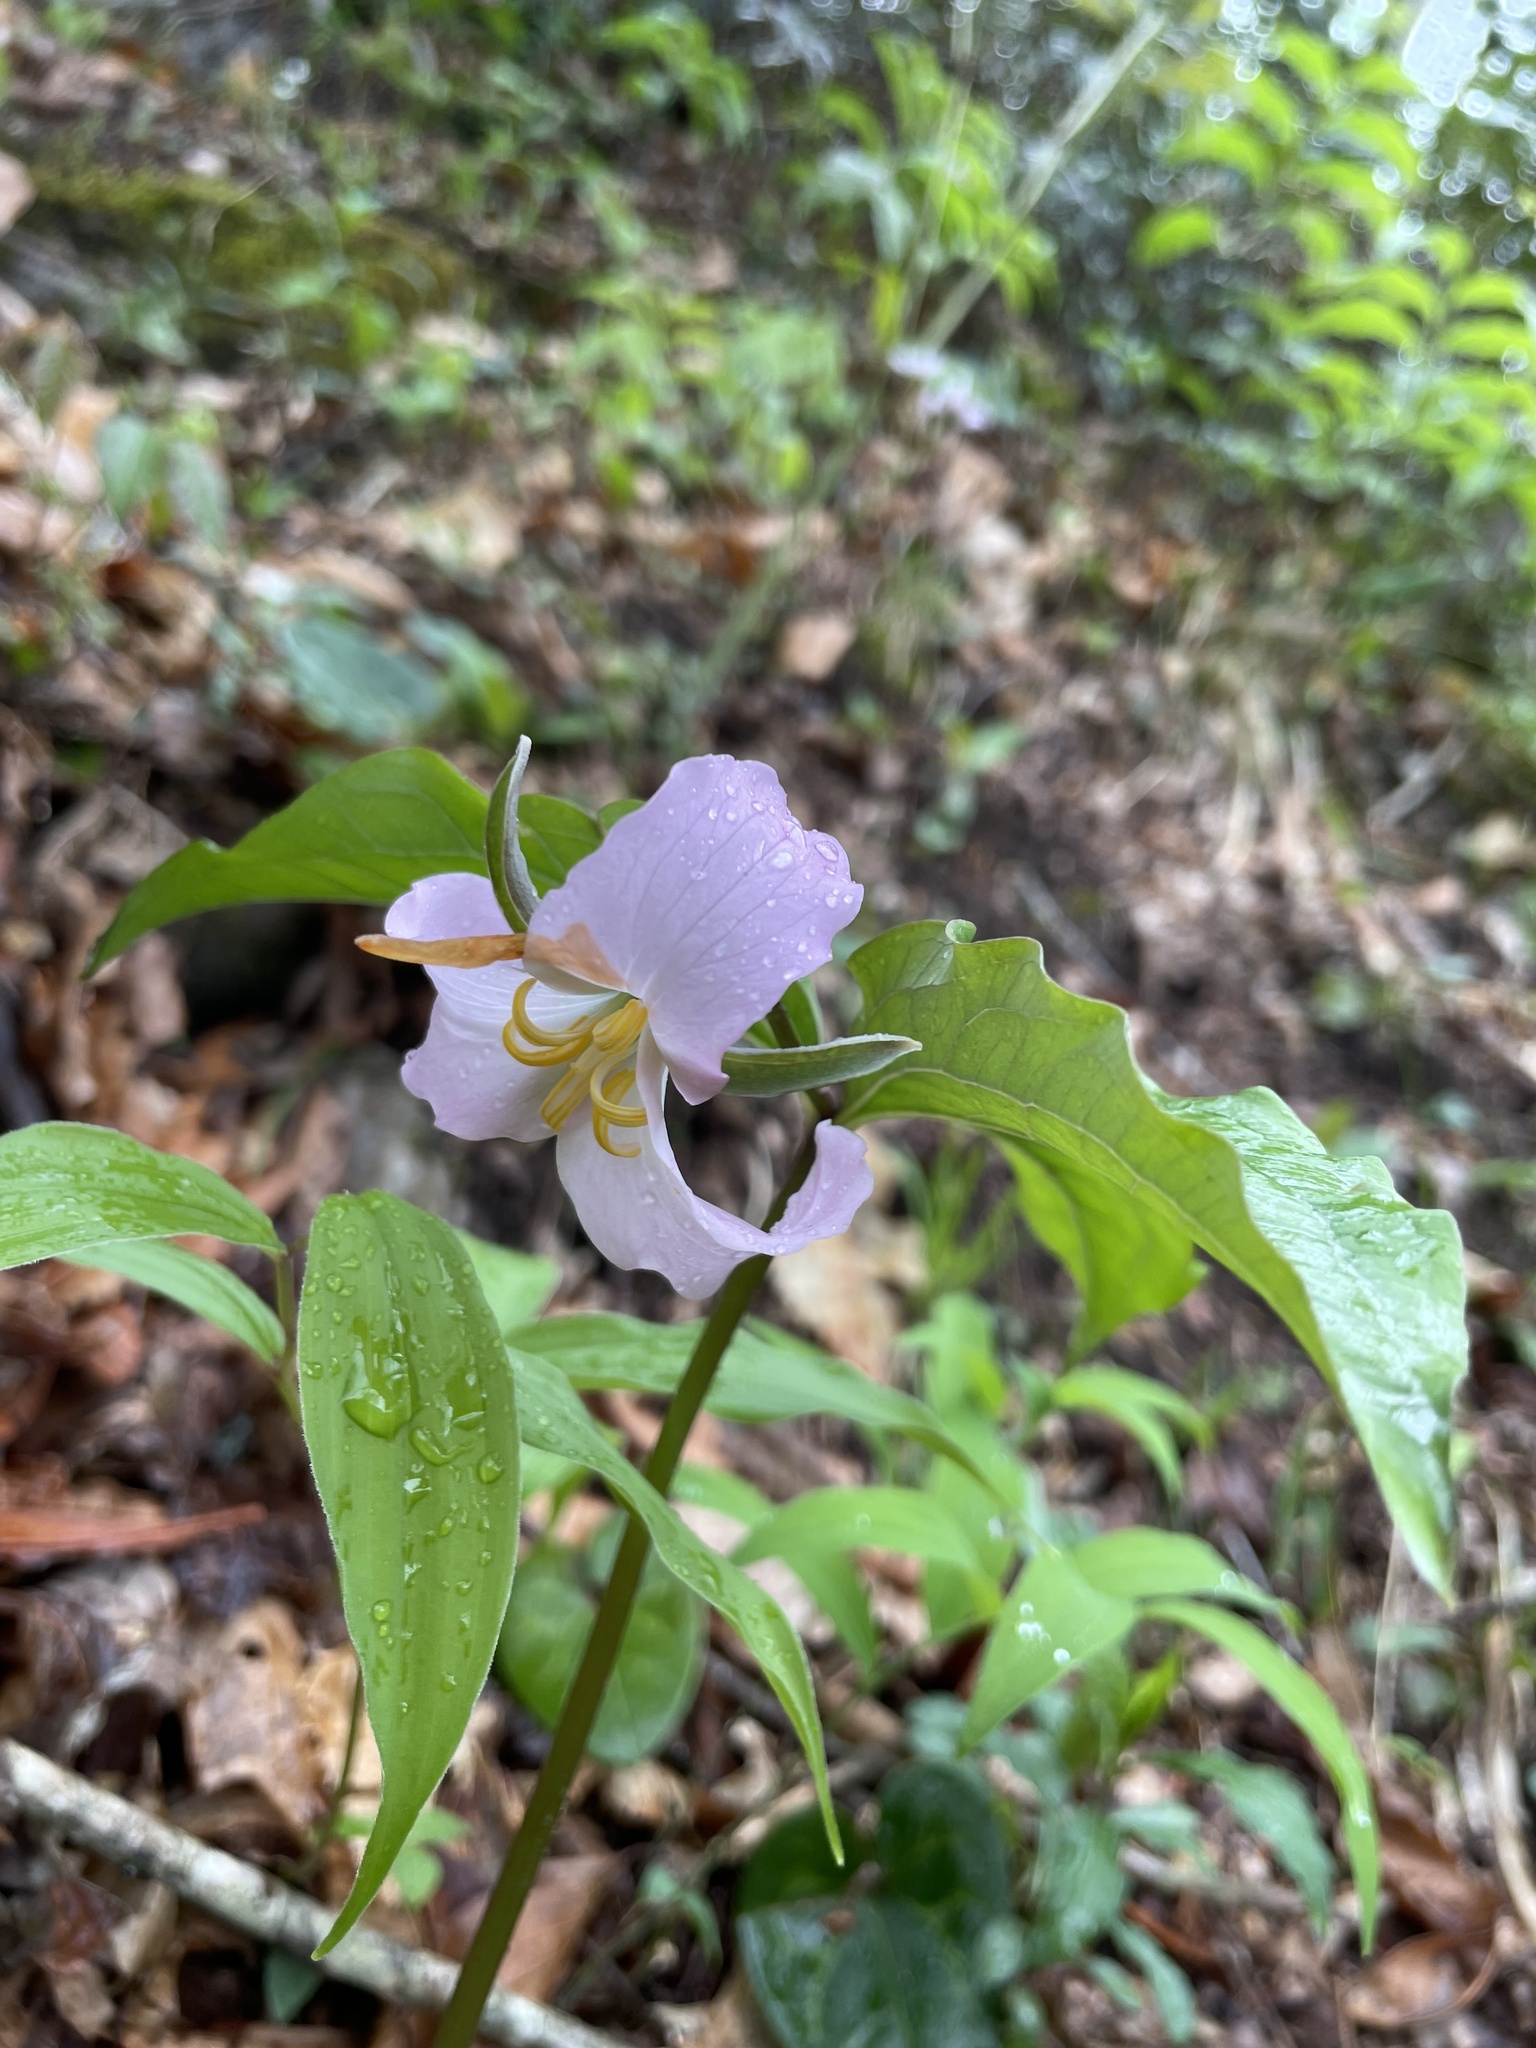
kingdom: Plantae
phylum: Tracheophyta
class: Liliopsida
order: Liliales
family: Melanthiaceae
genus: Trillium
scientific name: Trillium catesbaei
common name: Bashful trillium
